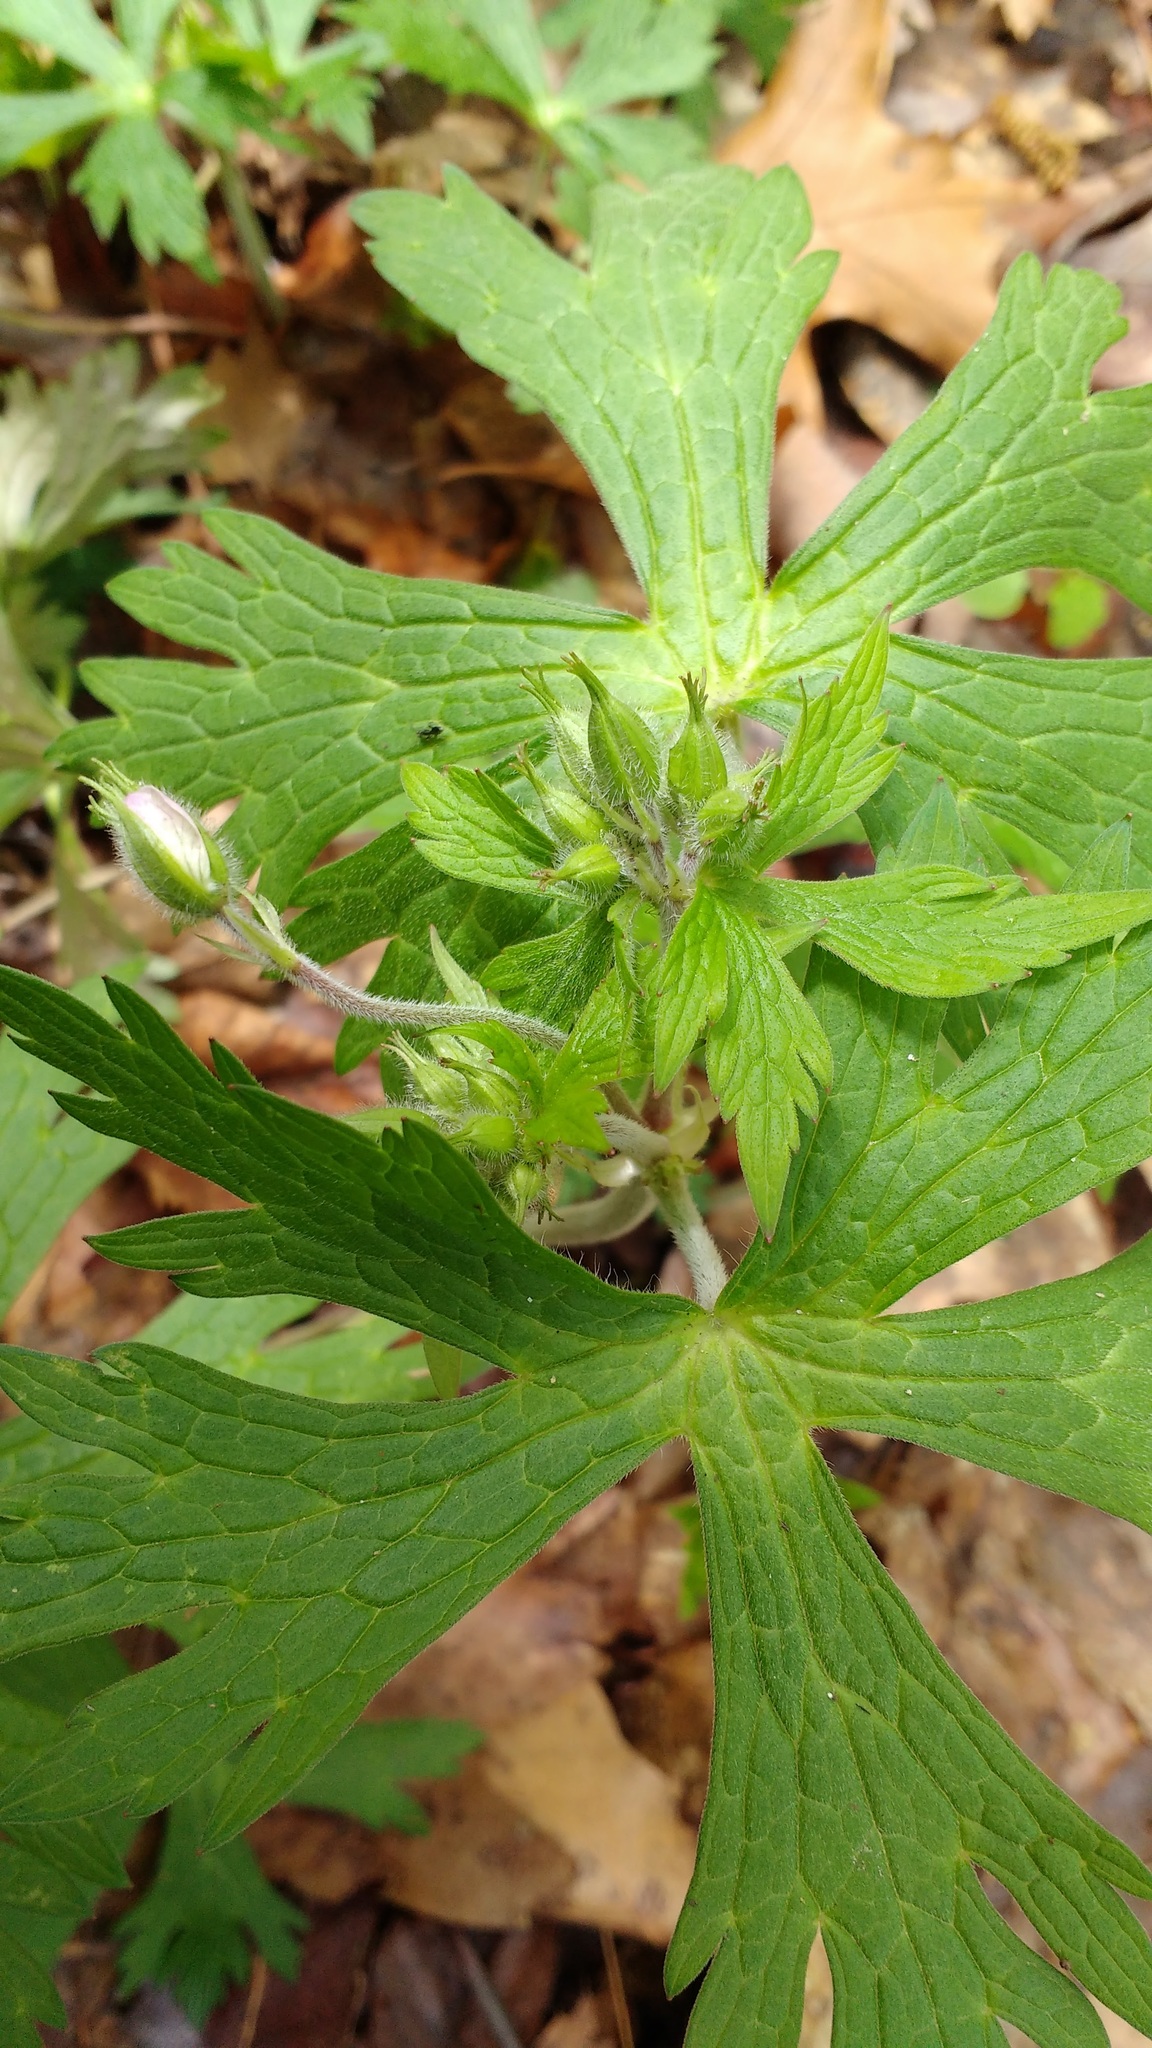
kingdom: Plantae
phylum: Tracheophyta
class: Magnoliopsida
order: Geraniales
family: Geraniaceae
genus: Geranium
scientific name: Geranium maculatum
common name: Spotted geranium
